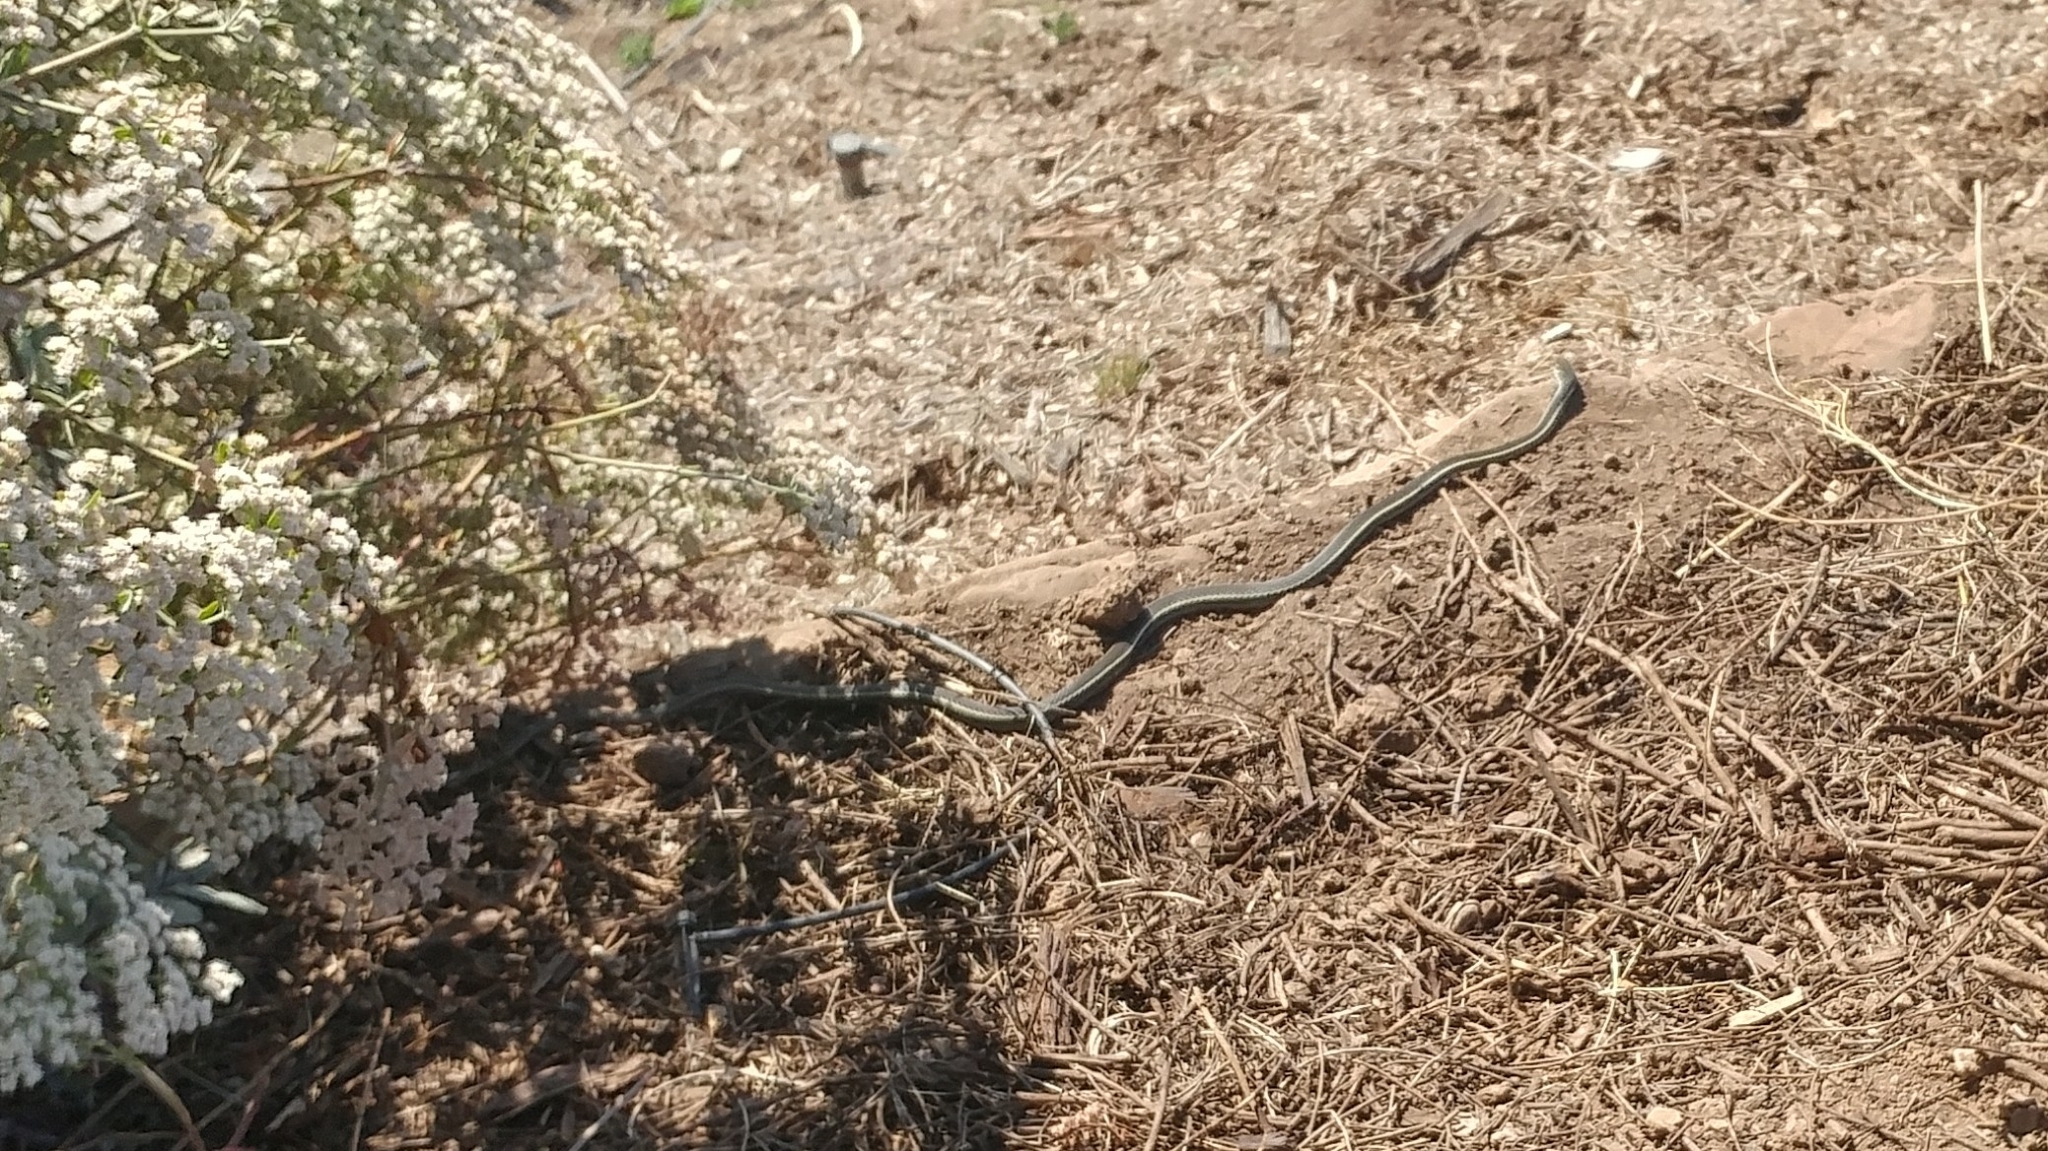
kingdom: Animalia
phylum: Chordata
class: Squamata
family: Colubridae
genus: Masticophis
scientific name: Masticophis lateralis
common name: Striped racer
